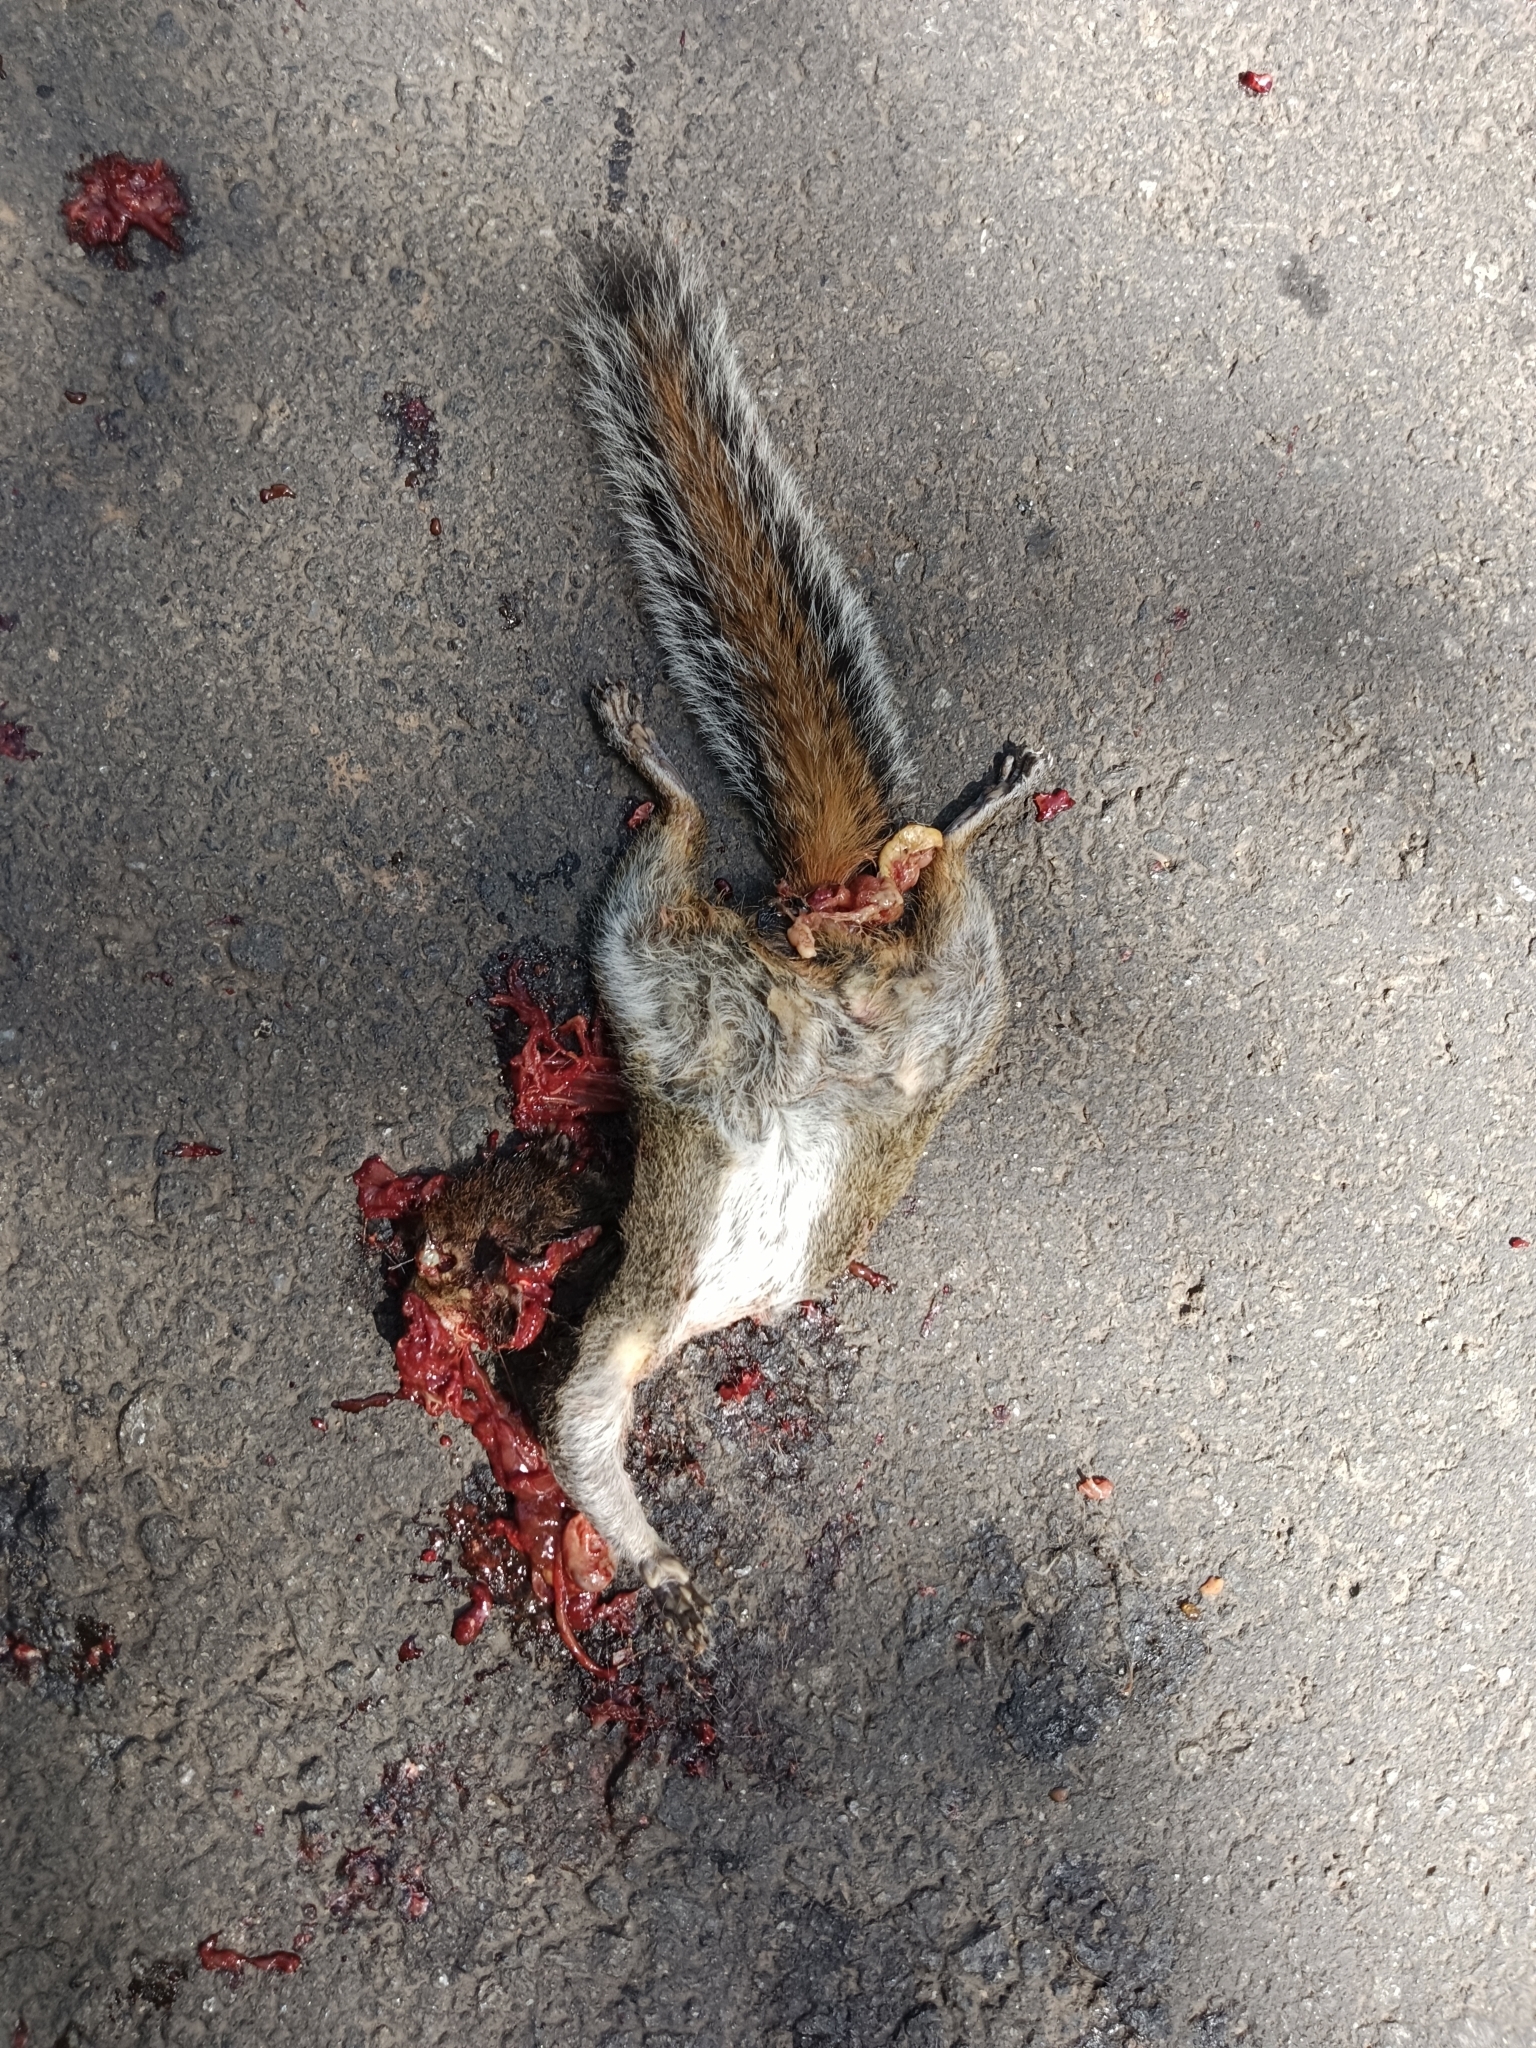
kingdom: Animalia
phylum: Chordata
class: Mammalia
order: Rodentia
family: Sciuridae
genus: Funambulus
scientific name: Funambulus tristriatus
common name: Jungle palm squirrel
